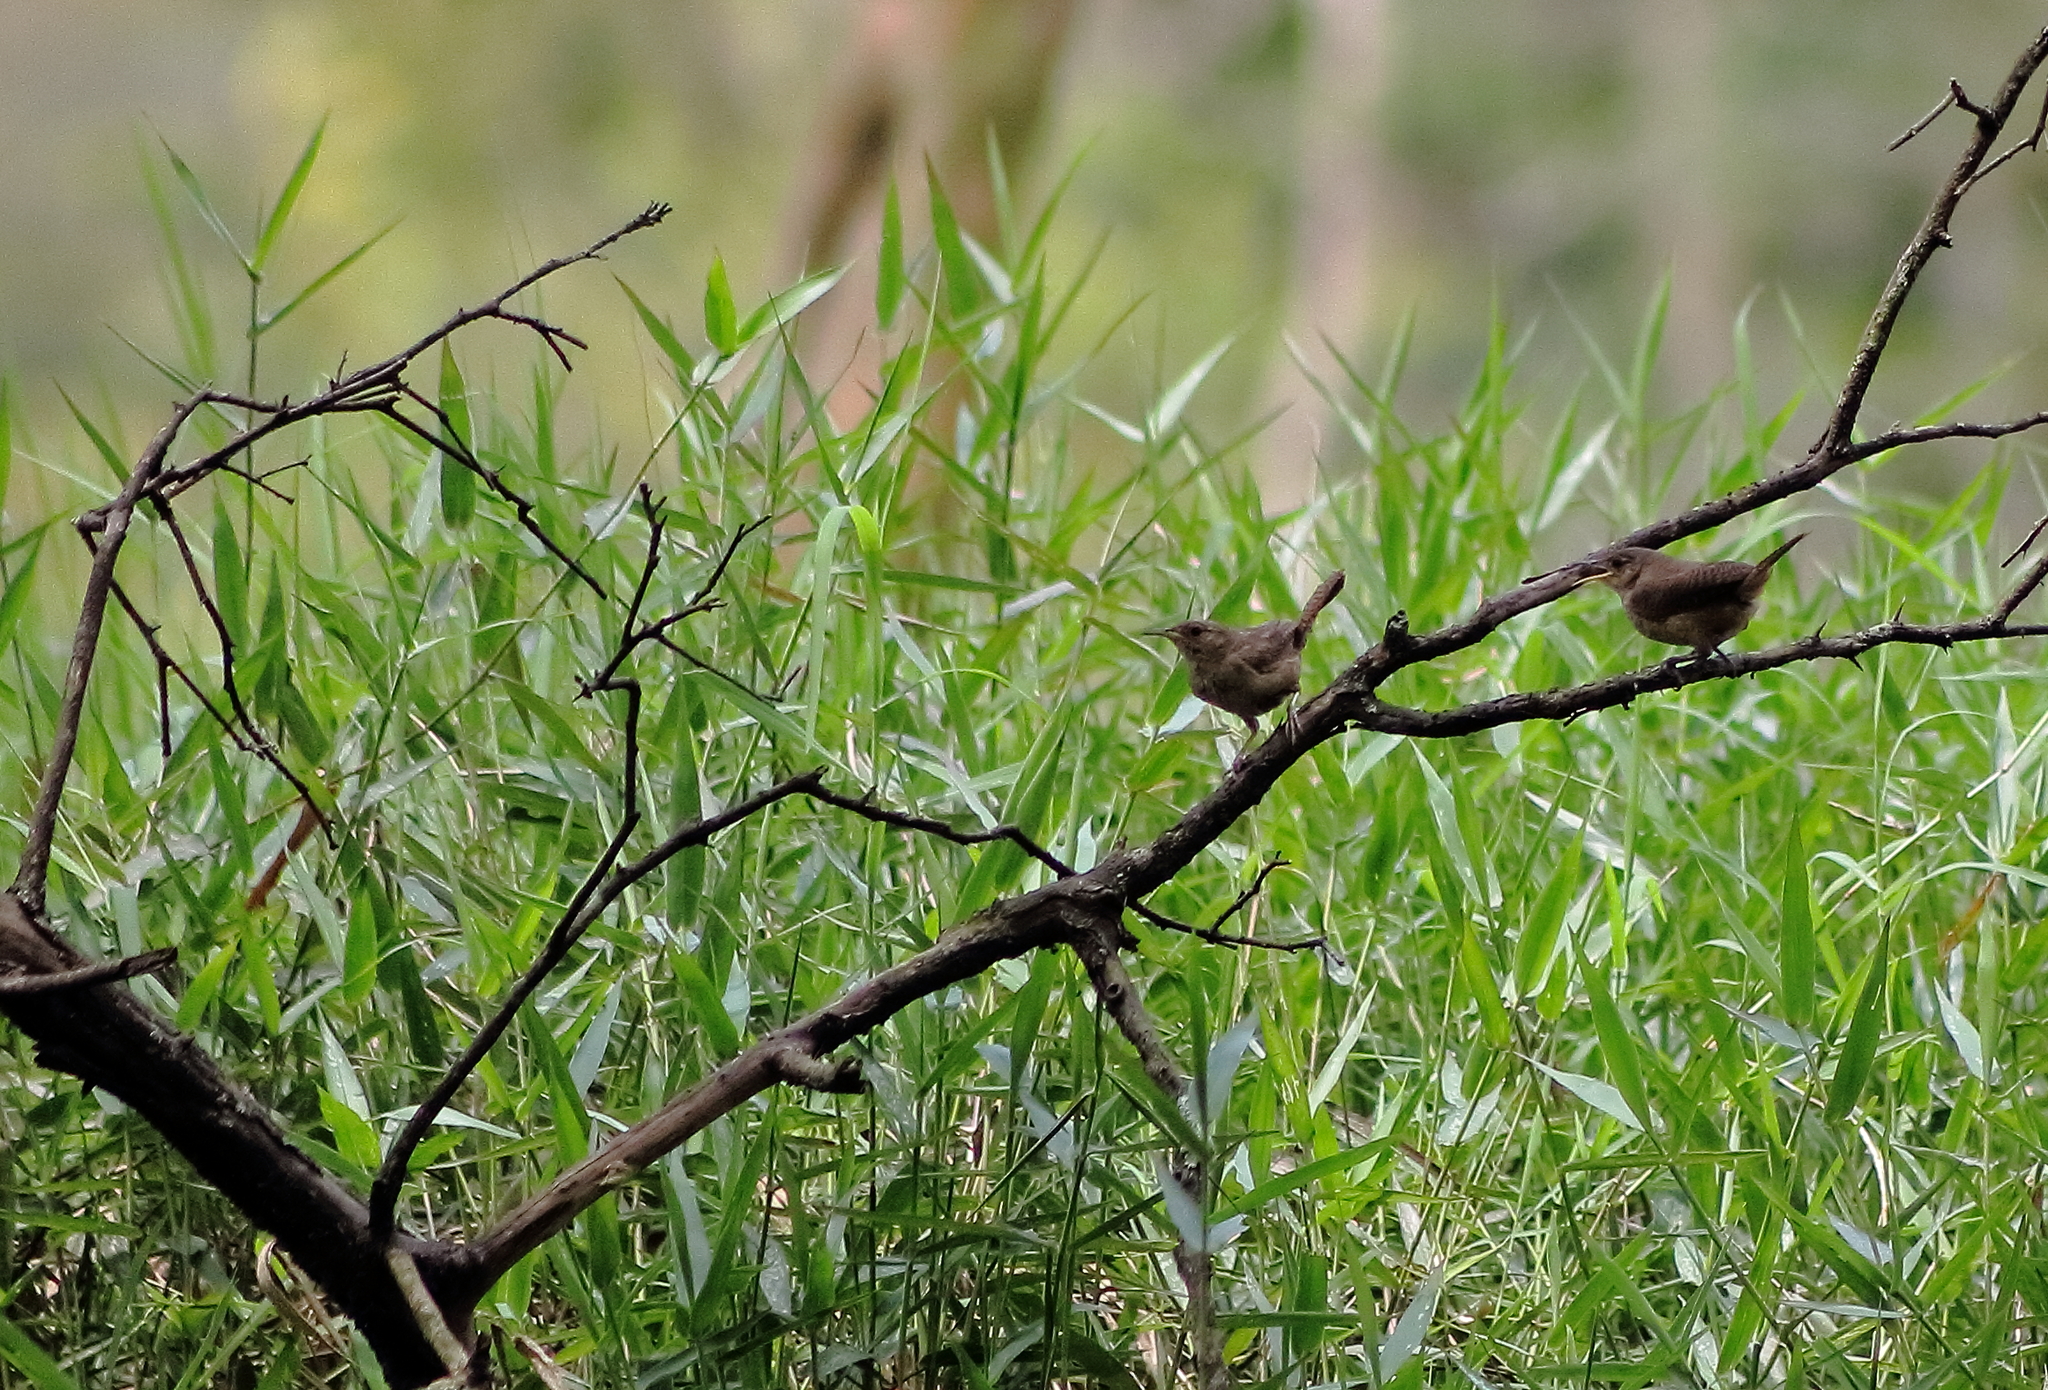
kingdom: Animalia
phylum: Chordata
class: Aves
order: Passeriformes
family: Troglodytidae
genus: Troglodytes
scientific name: Troglodytes aedon
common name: House wren
